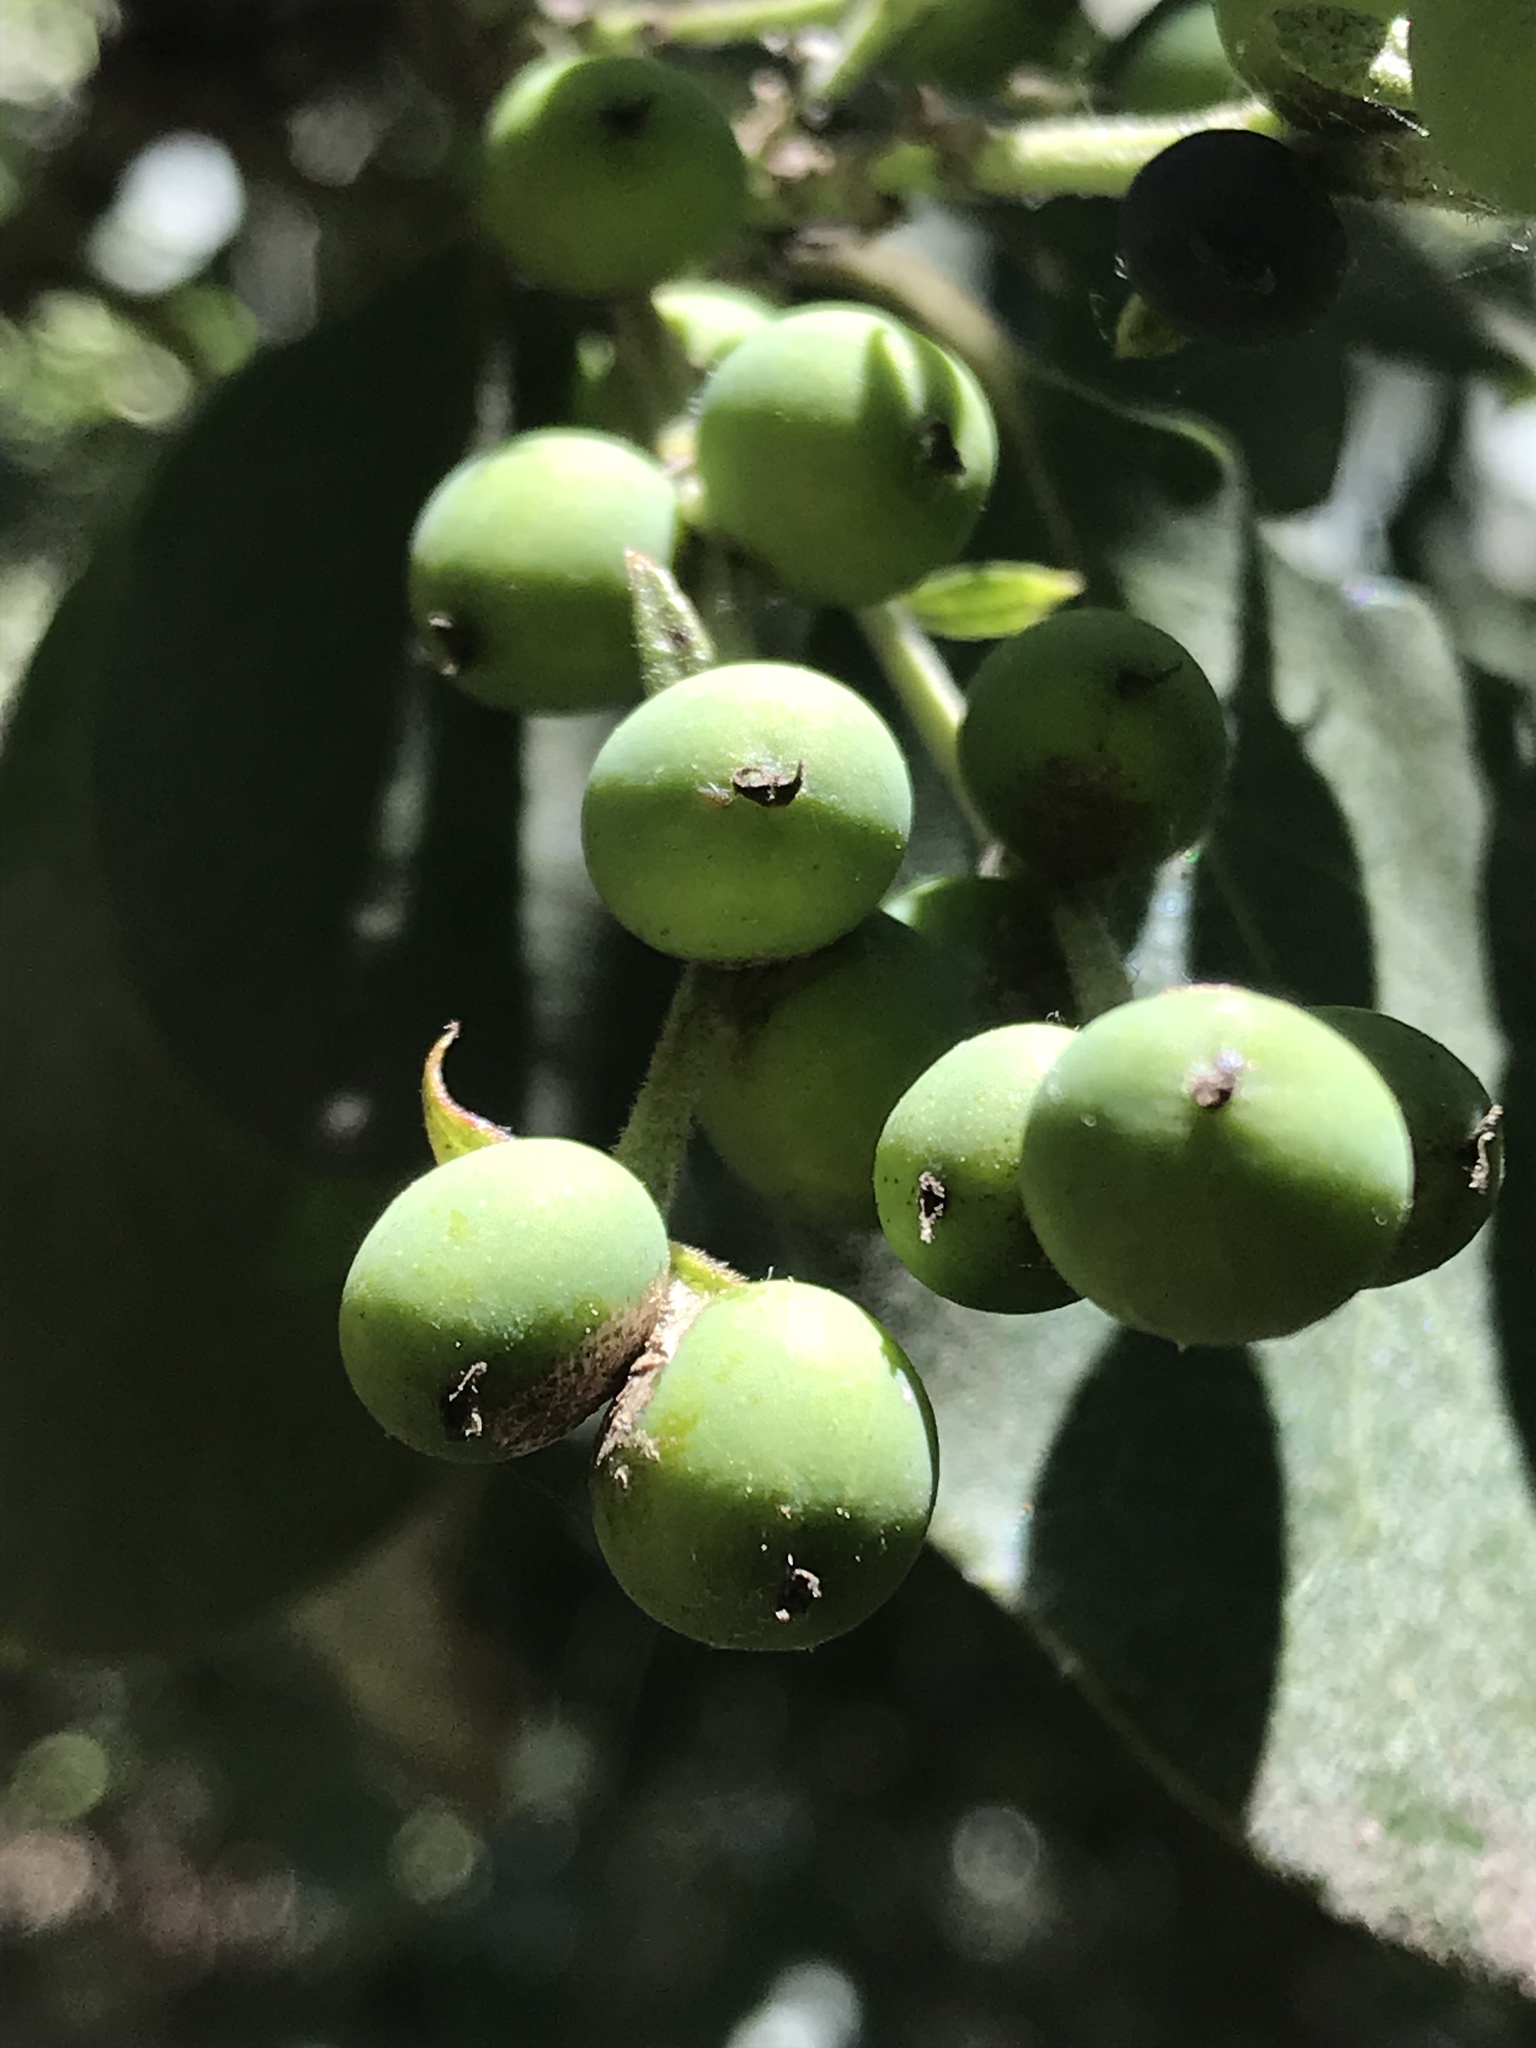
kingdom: Plantae
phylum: Tracheophyta
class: Magnoliopsida
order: Garryales
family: Garryaceae
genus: Garrya
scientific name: Garrya ovata
